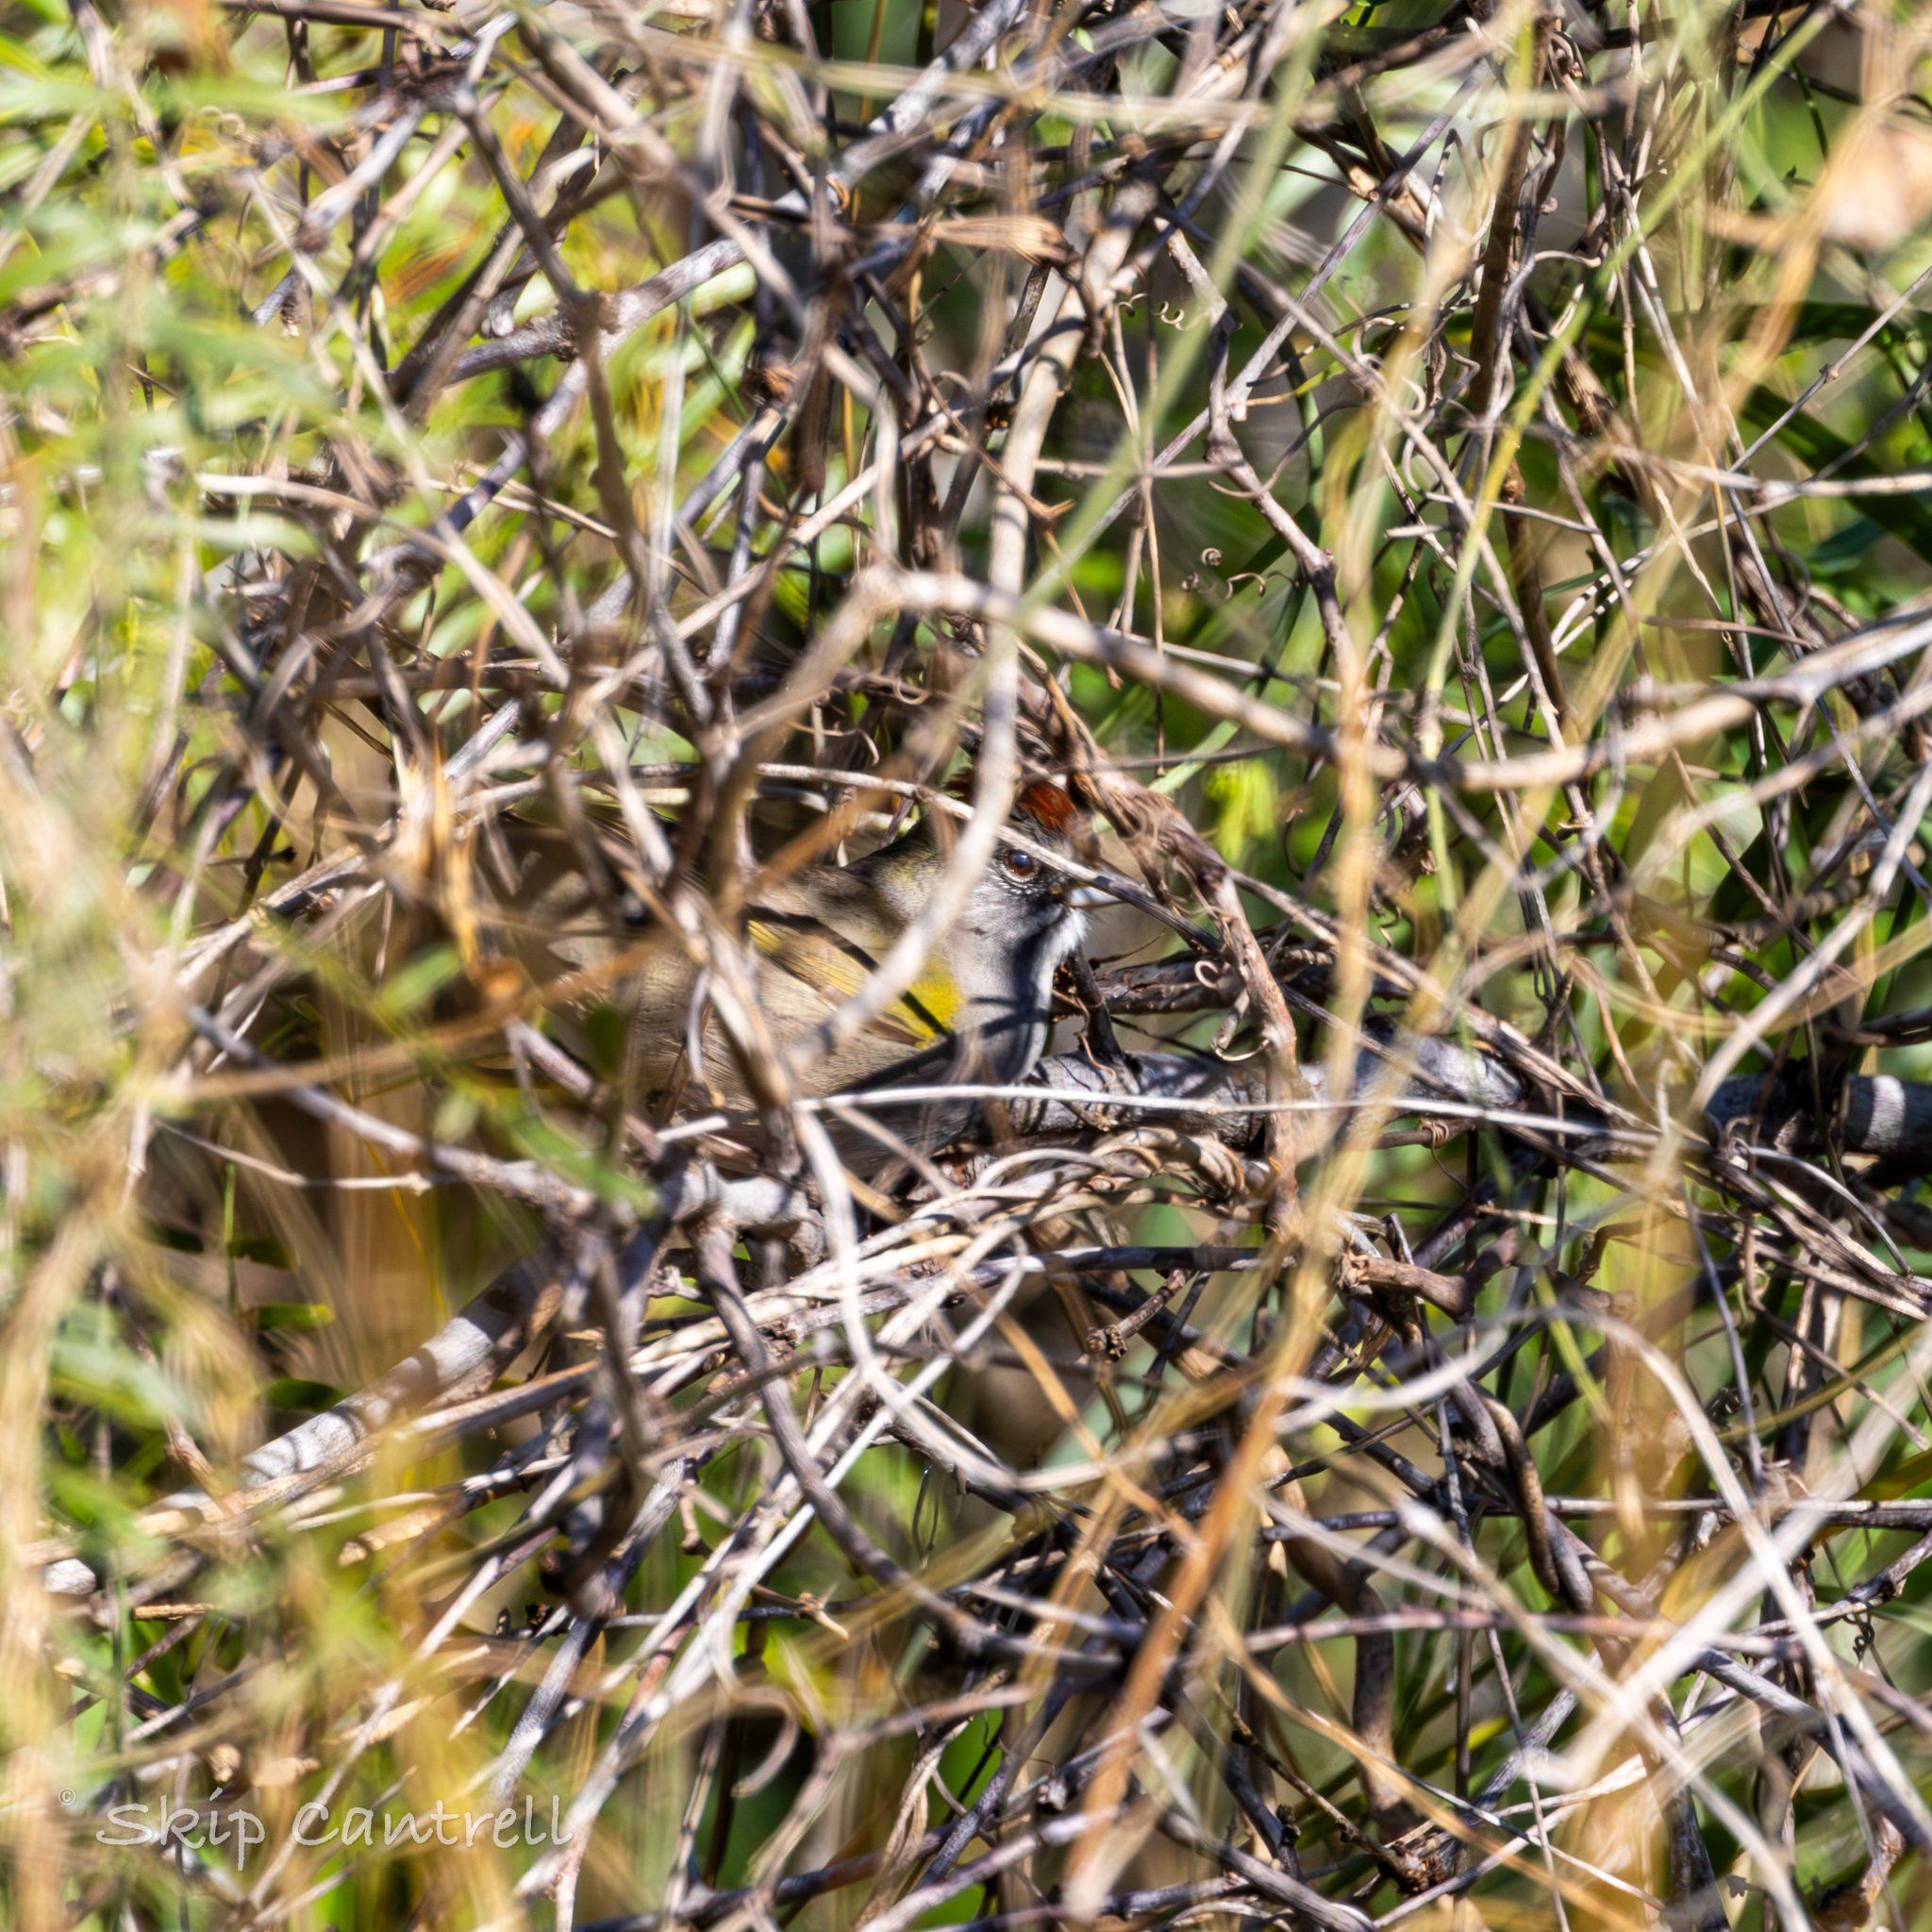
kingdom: Animalia
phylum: Chordata
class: Aves
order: Passeriformes
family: Passerellidae
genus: Pipilo
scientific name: Pipilo chlorurus
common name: Green-tailed towhee
